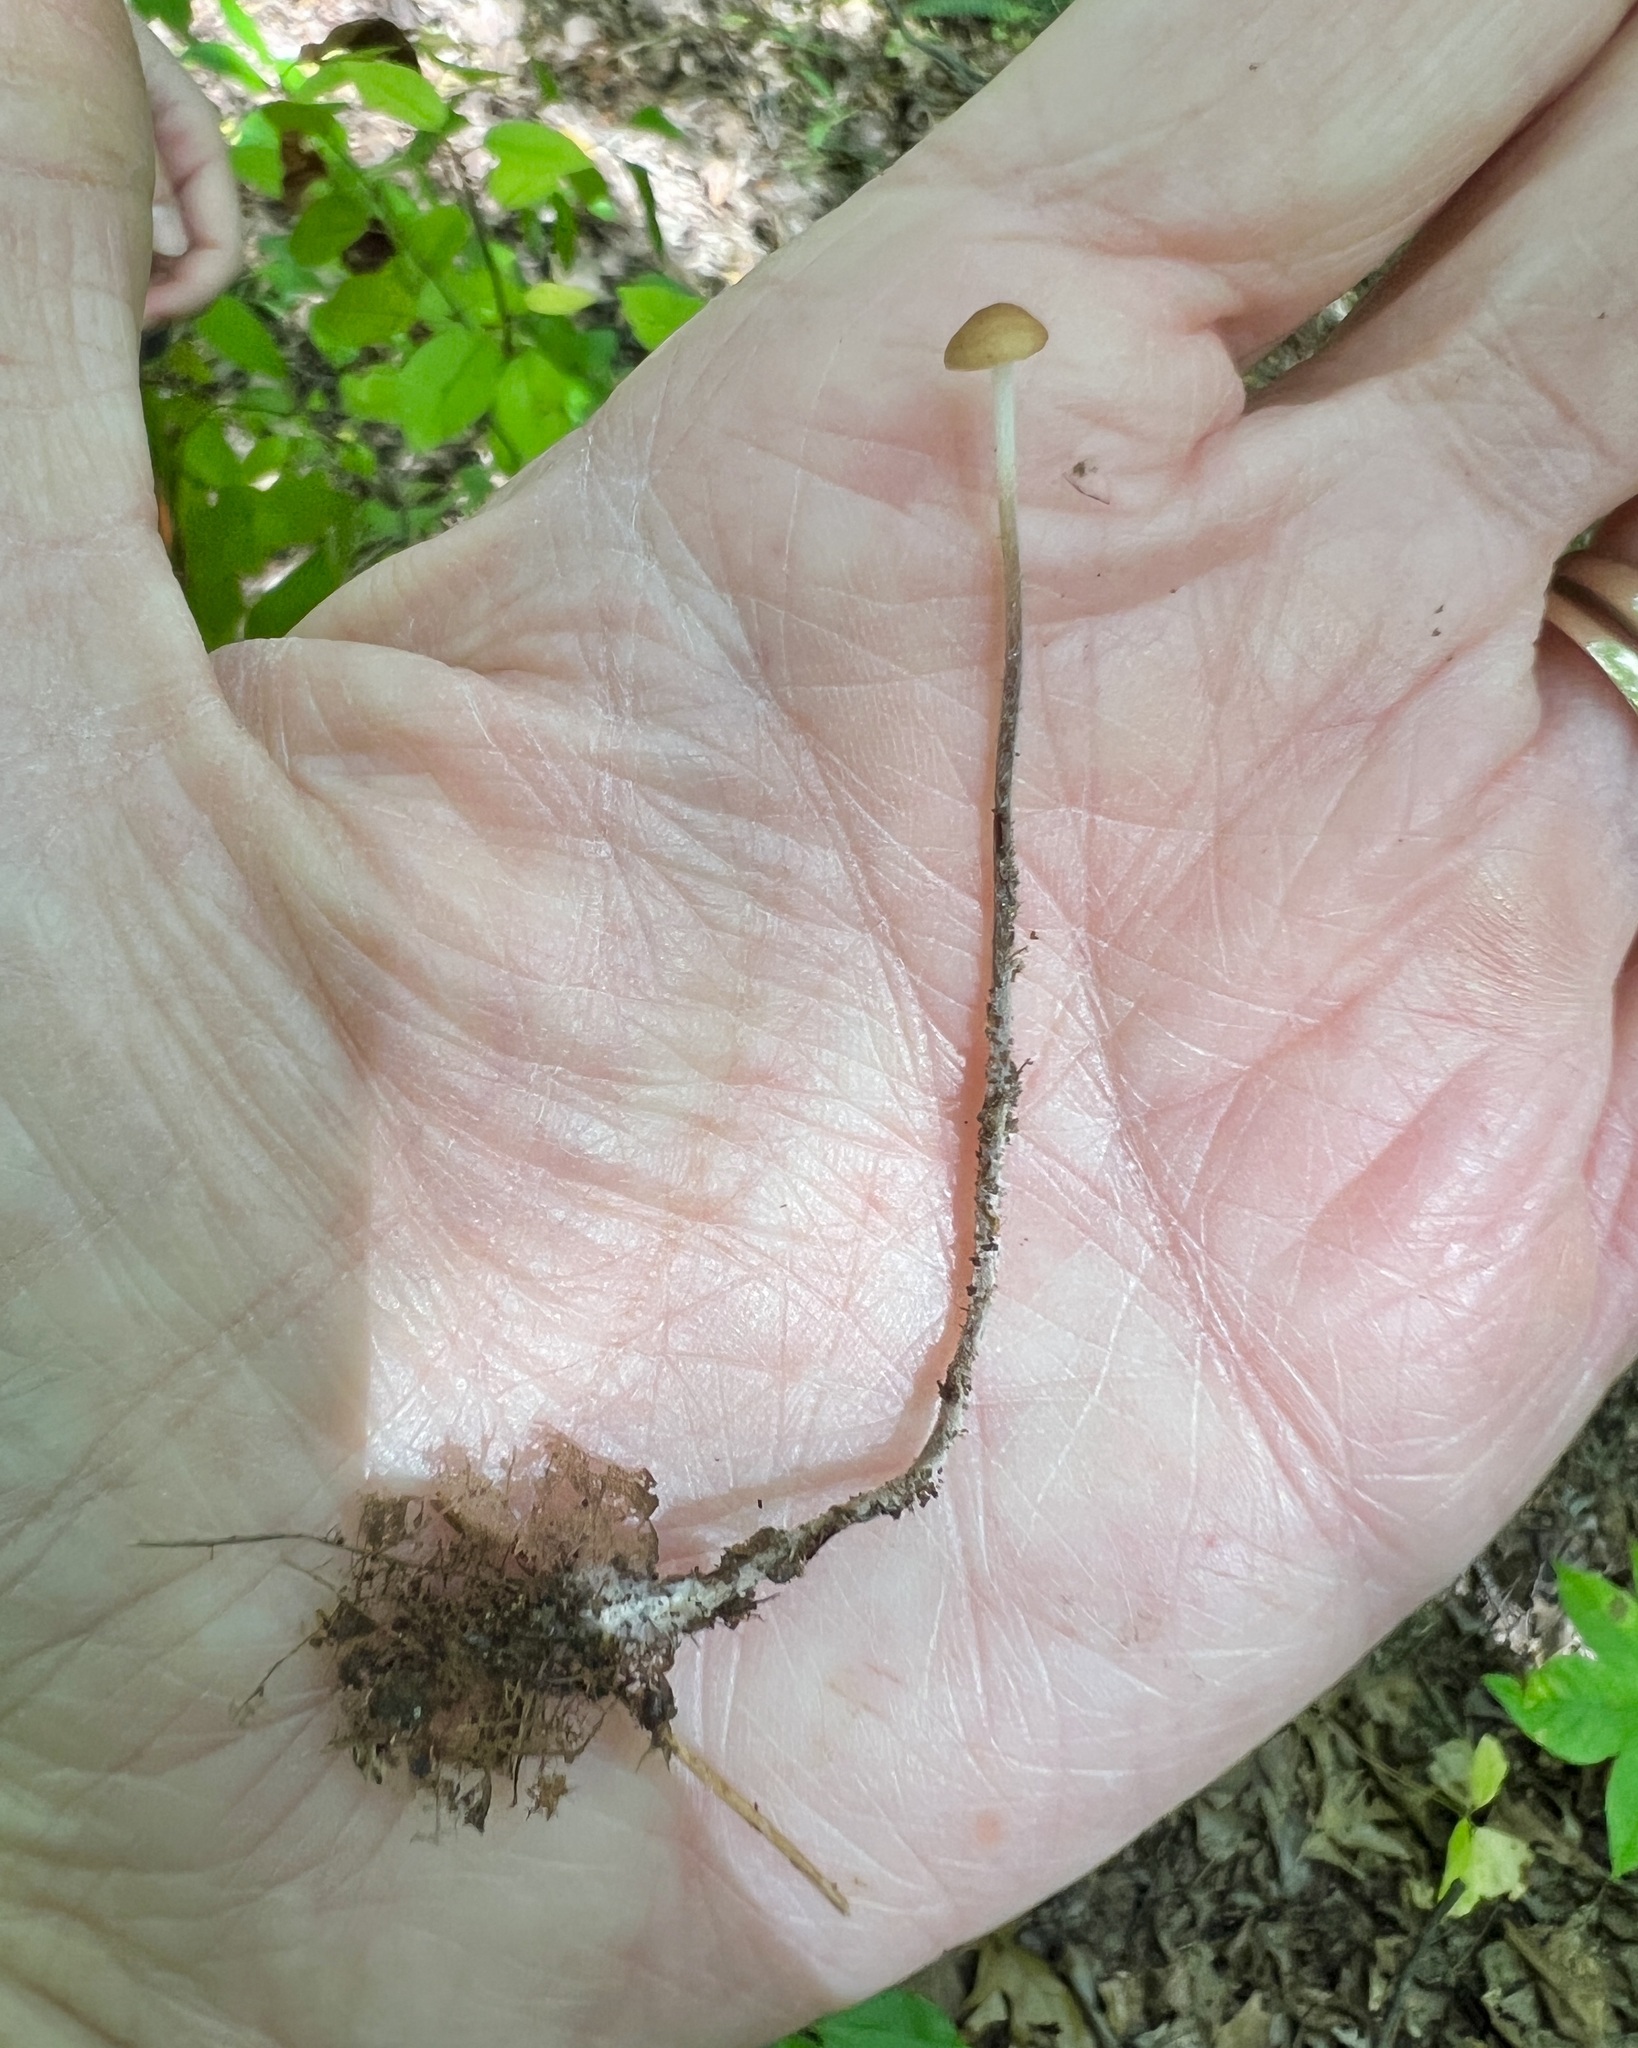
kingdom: Fungi
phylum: Basidiomycota
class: Agaricomycetes
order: Agaricales
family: Physalacriaceae
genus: Rhizomarasmius
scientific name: Rhizomarasmius pyrrhocephalus
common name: Hairy long stem marasmius
